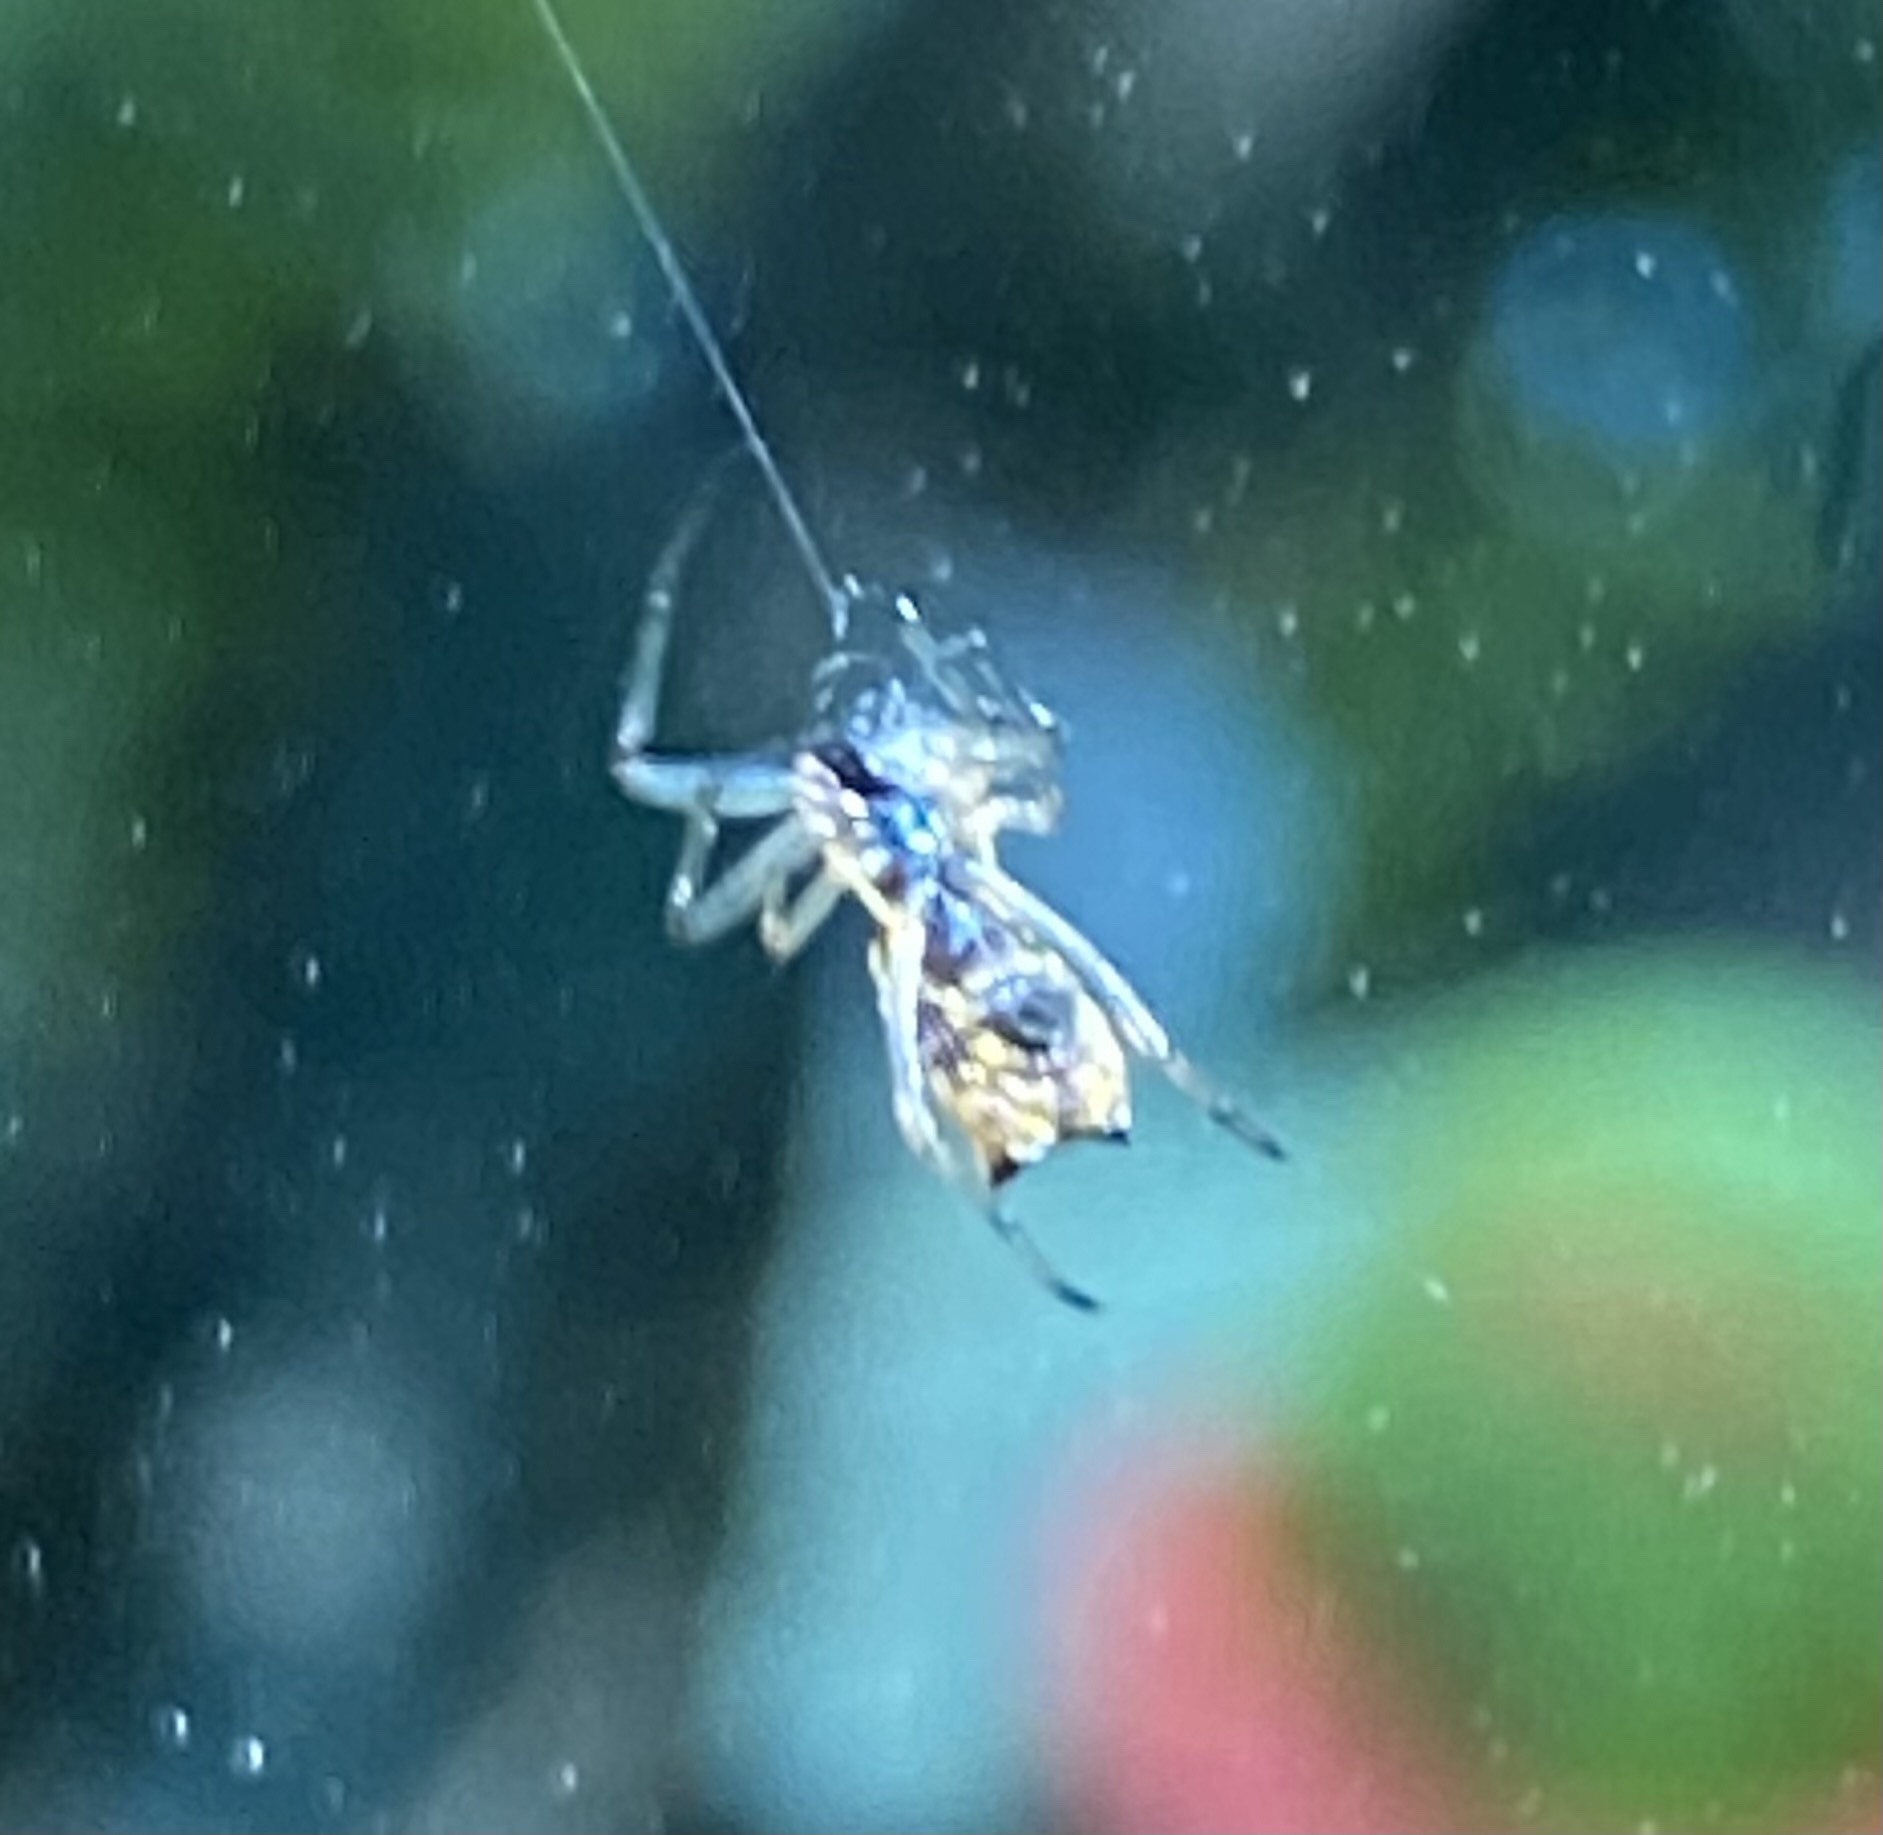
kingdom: Animalia
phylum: Arthropoda
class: Arachnida
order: Araneae
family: Araneidae
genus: Micrathena
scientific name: Micrathena mitrata
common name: Orb weavers
